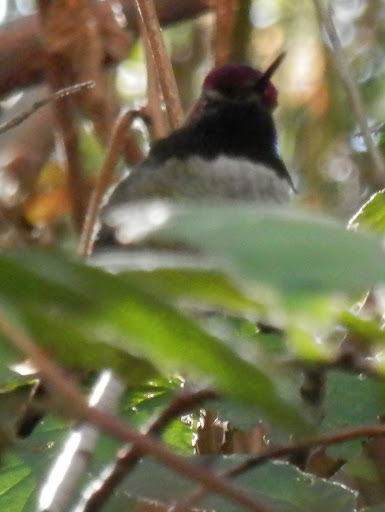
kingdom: Animalia
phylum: Chordata
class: Aves
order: Apodiformes
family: Trochilidae
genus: Calypte
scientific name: Calypte anna
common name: Anna's hummingbird
